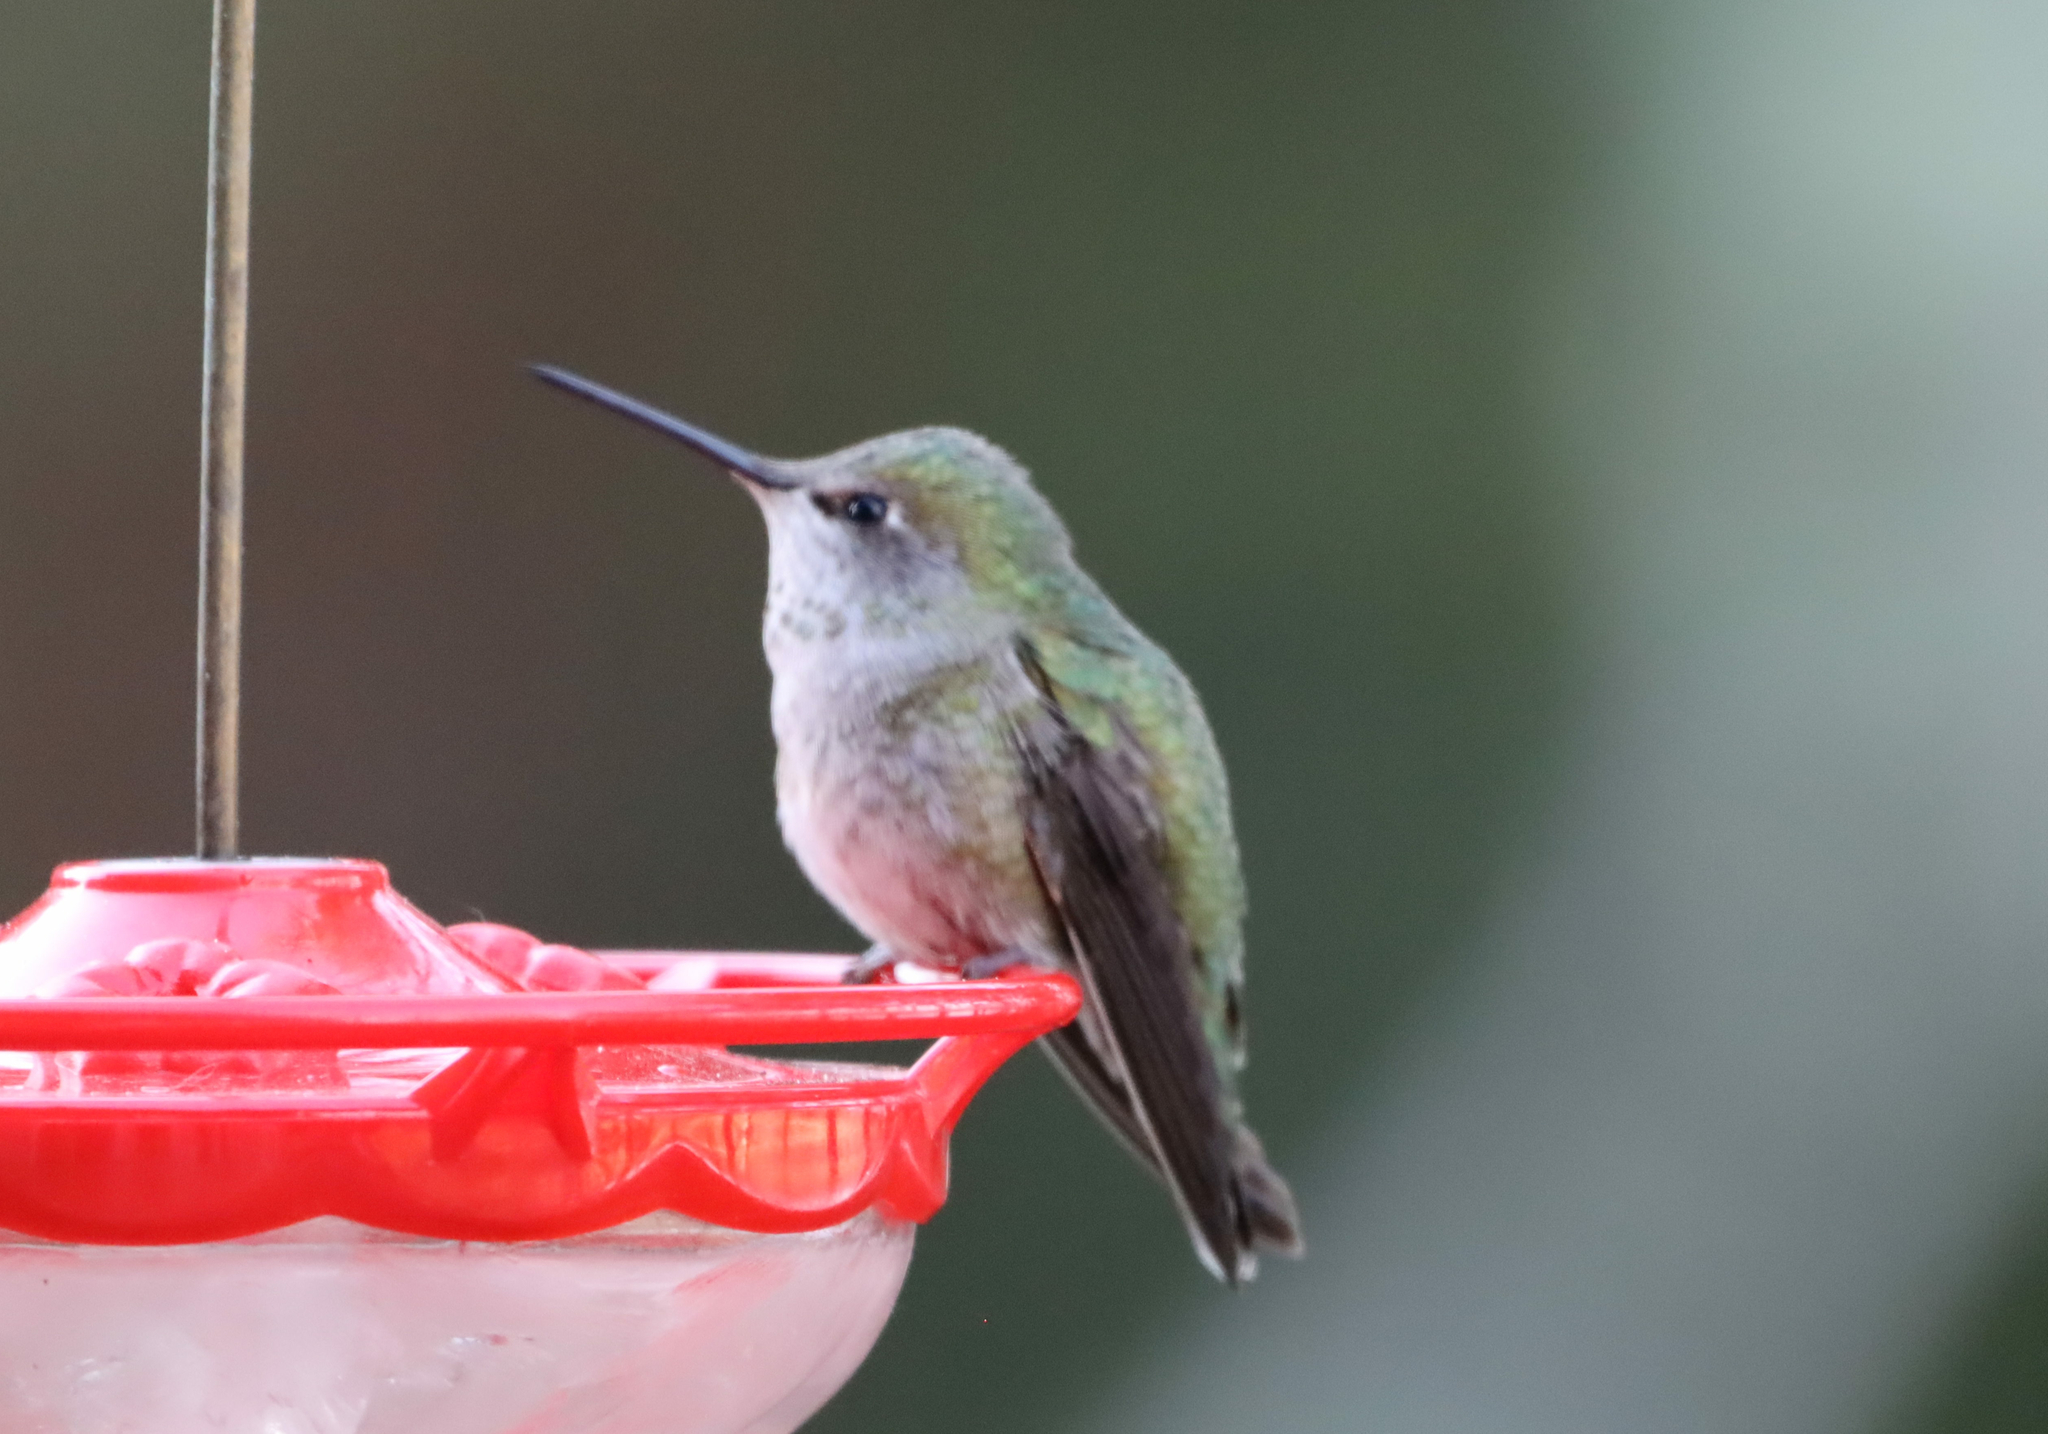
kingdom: Animalia
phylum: Chordata
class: Aves
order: Apodiformes
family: Trochilidae
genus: Calypte
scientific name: Calypte anna
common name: Anna's hummingbird
